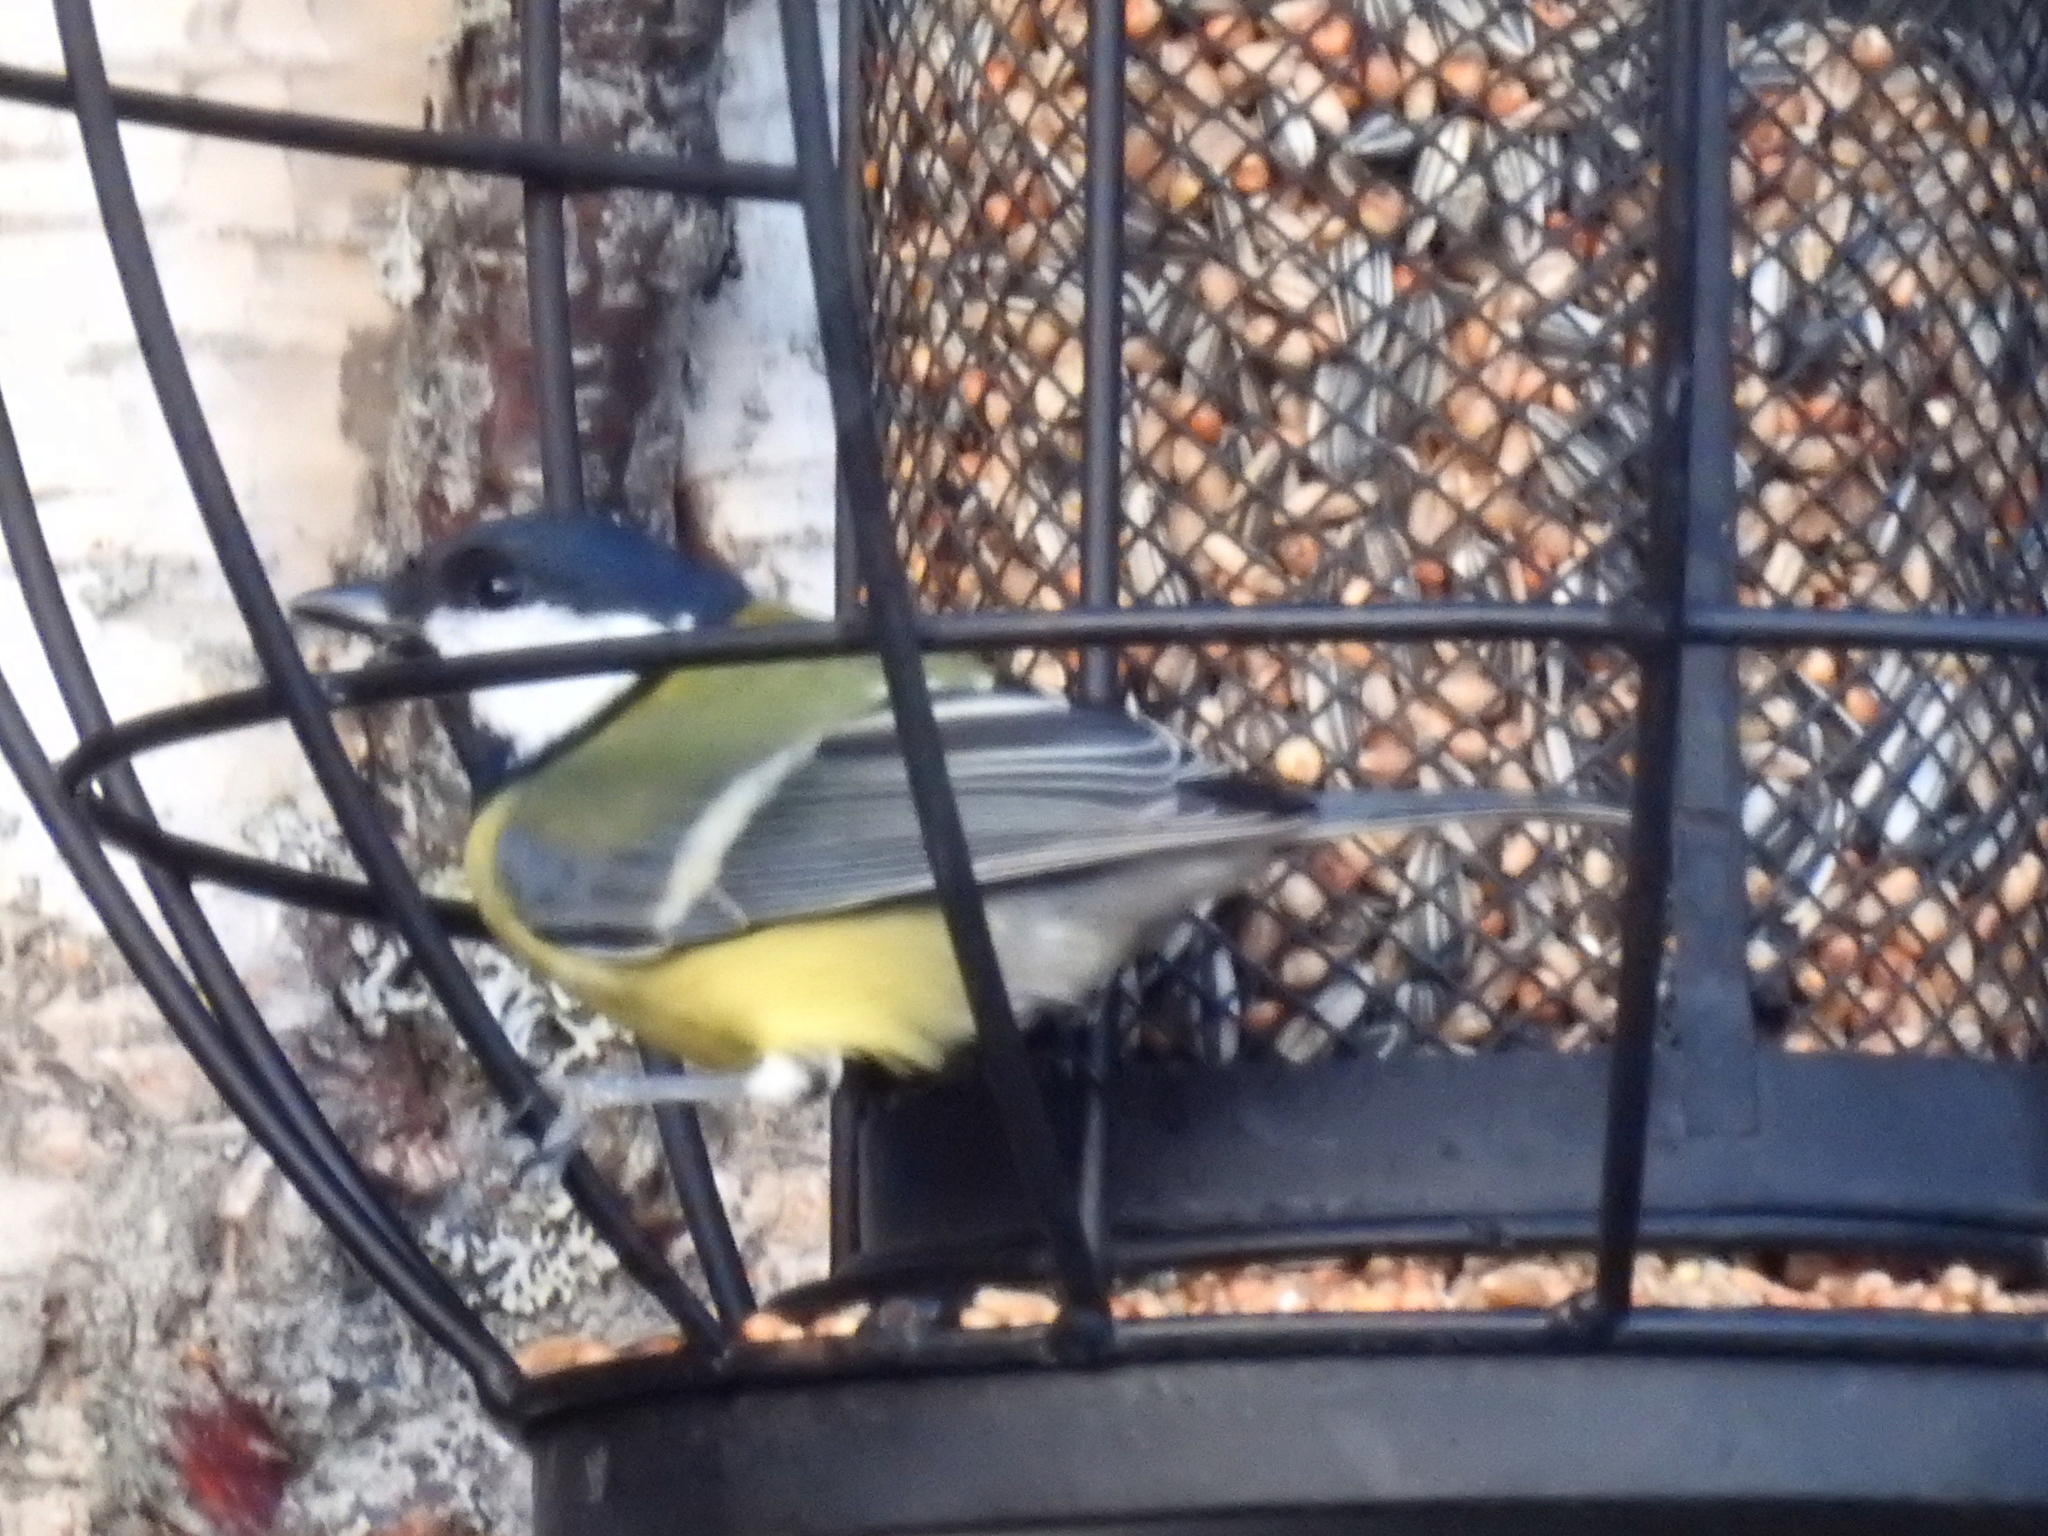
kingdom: Animalia
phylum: Chordata
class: Aves
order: Passeriformes
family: Paridae
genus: Parus
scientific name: Parus major
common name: Great tit
